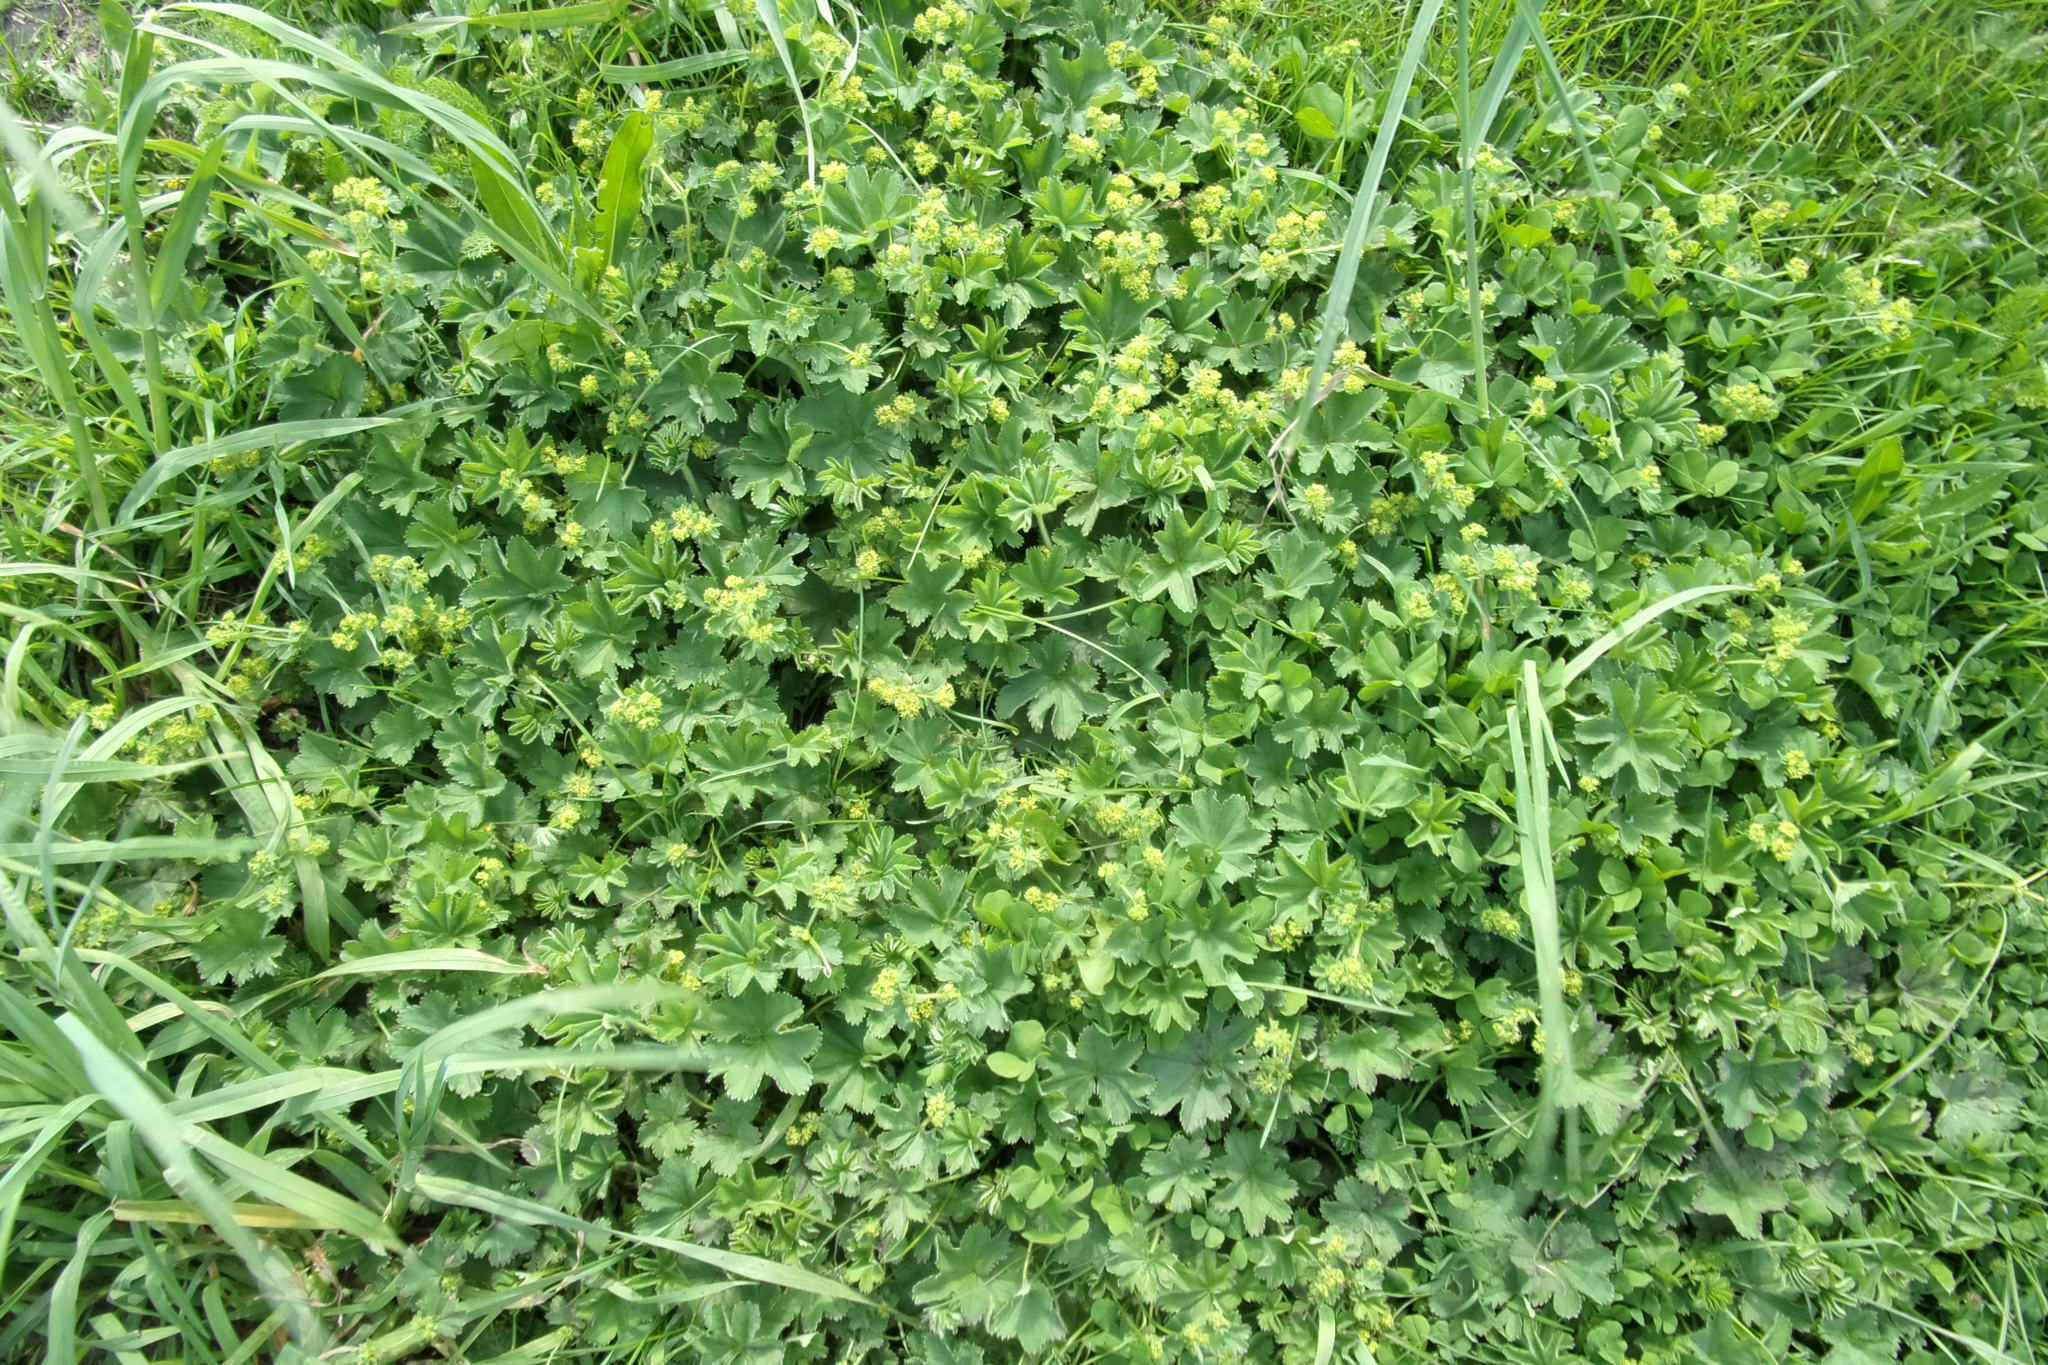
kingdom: Plantae
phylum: Tracheophyta
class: Magnoliopsida
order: Rosales
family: Rosaceae
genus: Alchemilla
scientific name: Alchemilla
